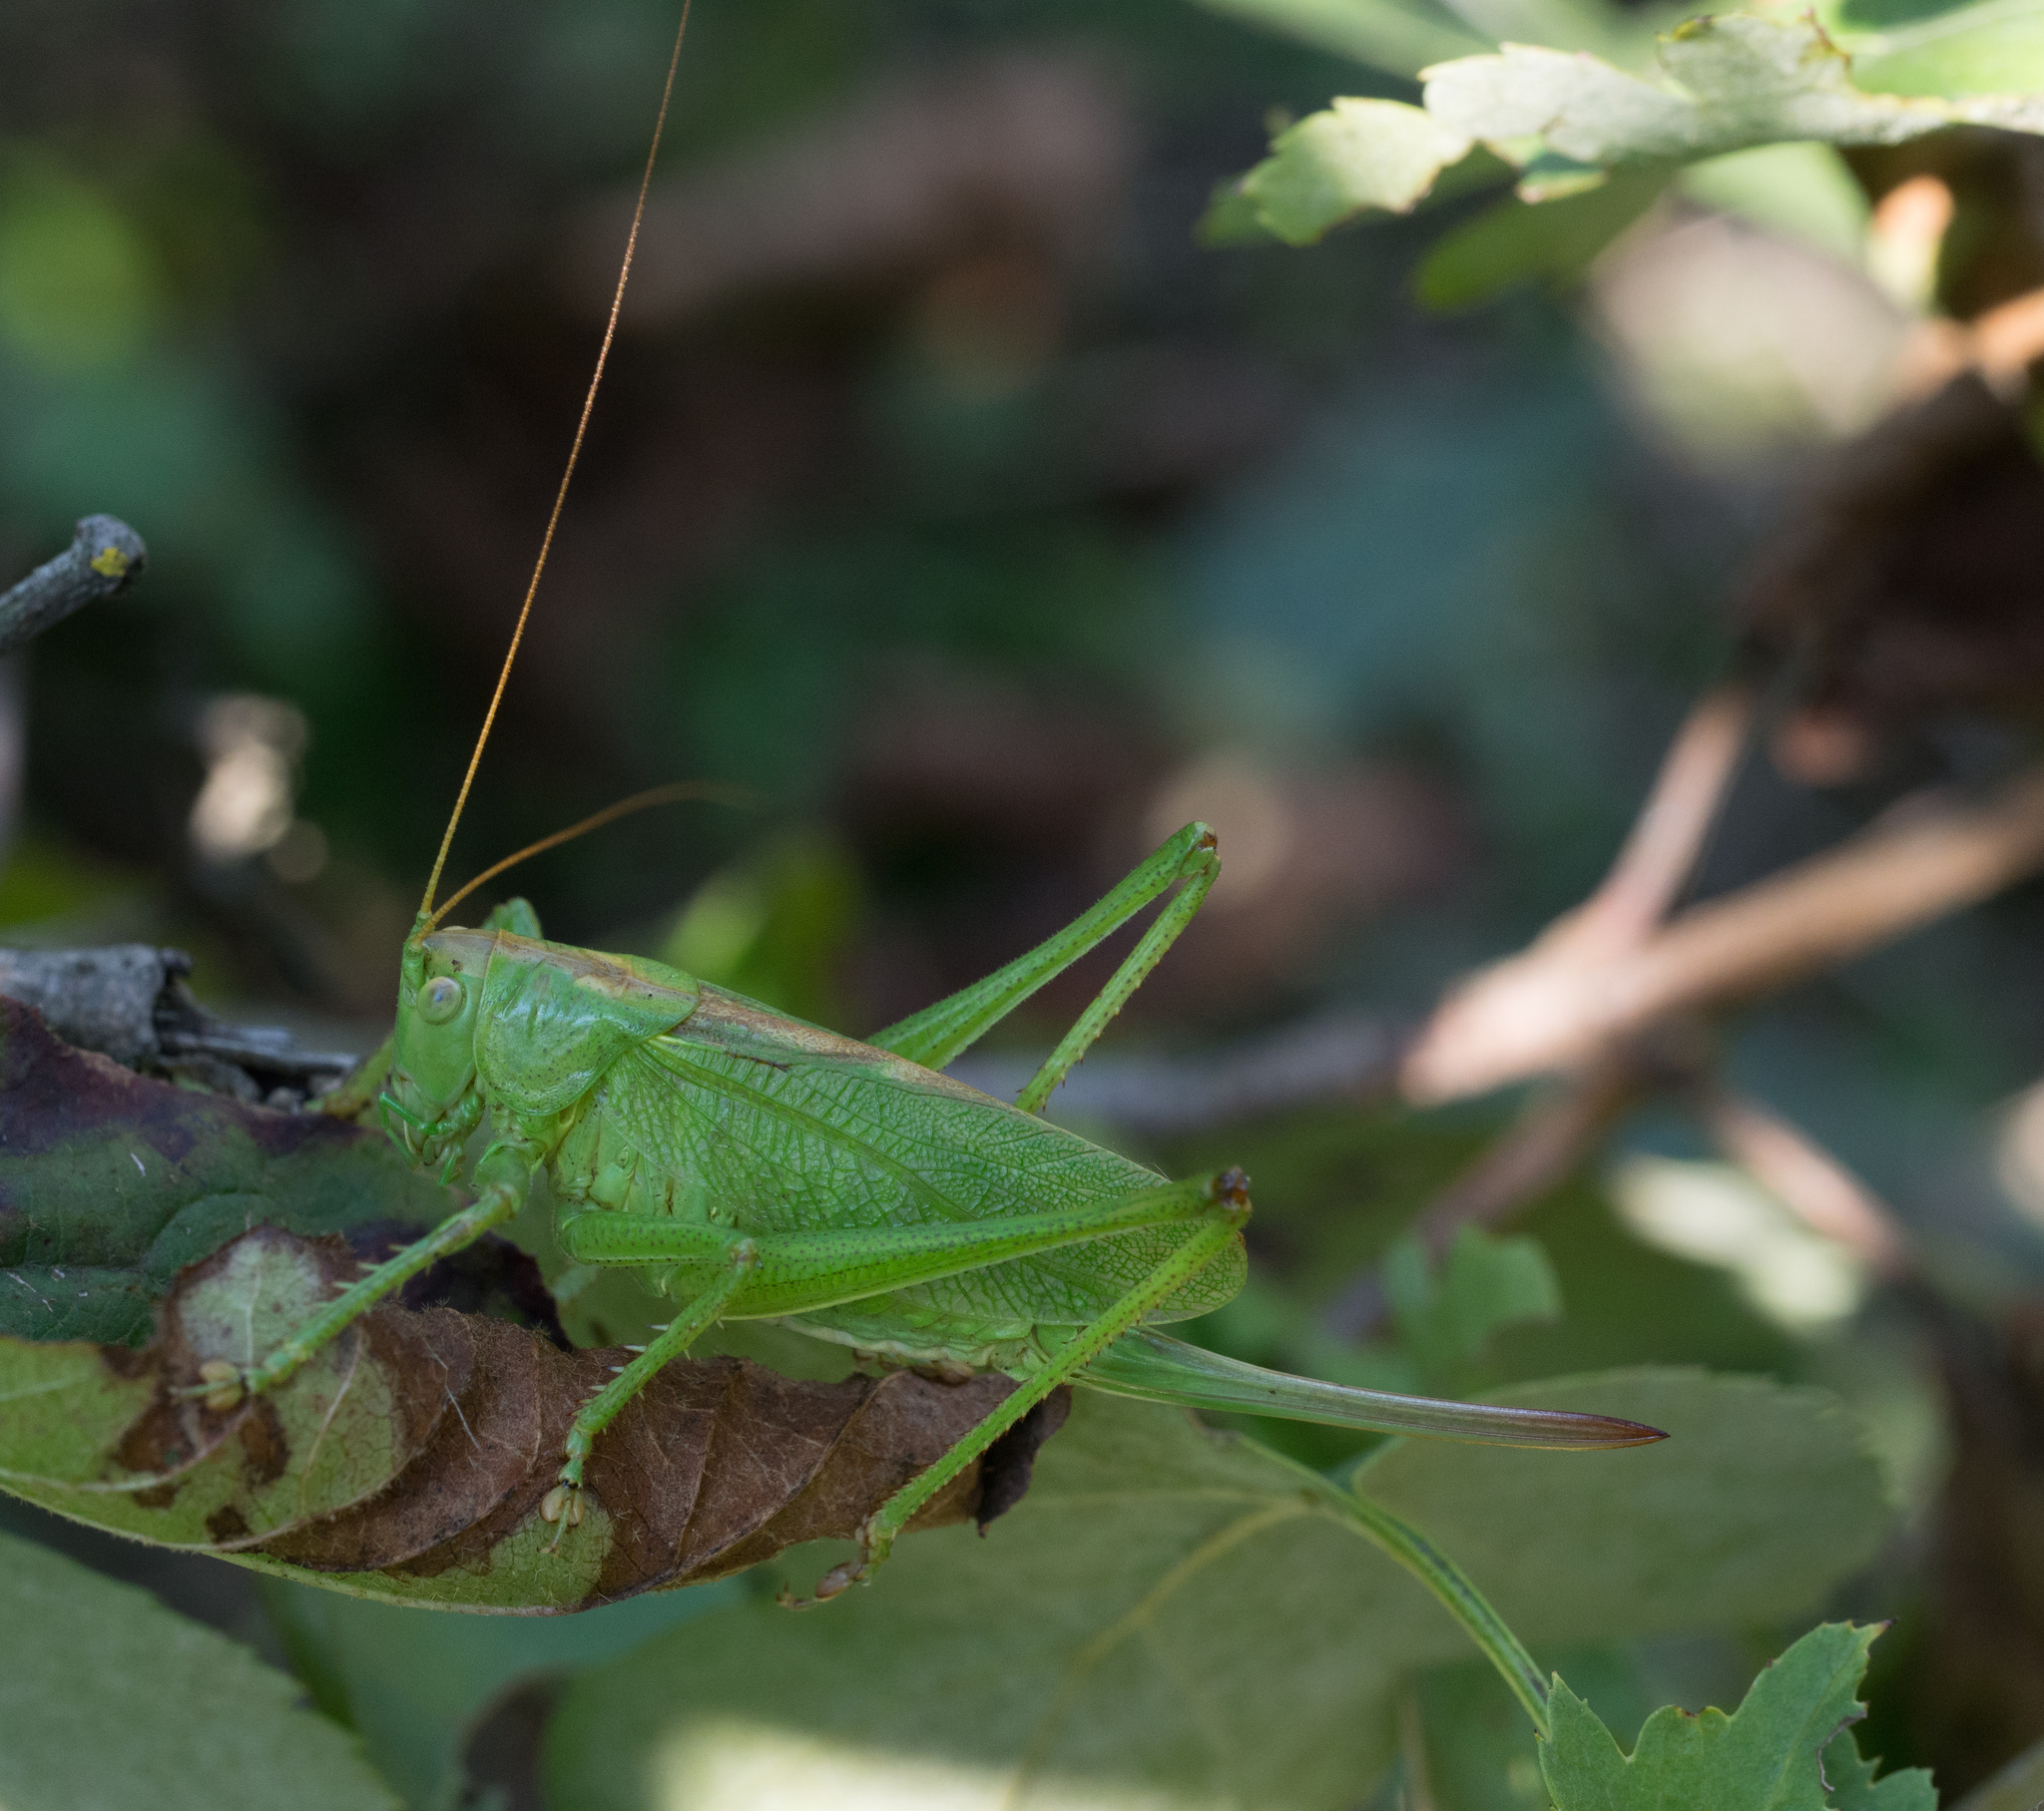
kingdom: Animalia
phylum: Arthropoda
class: Insecta
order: Orthoptera
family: Tettigoniidae
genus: Tettigonia
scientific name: Tettigonia cantans
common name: Upland green bush-cricket
